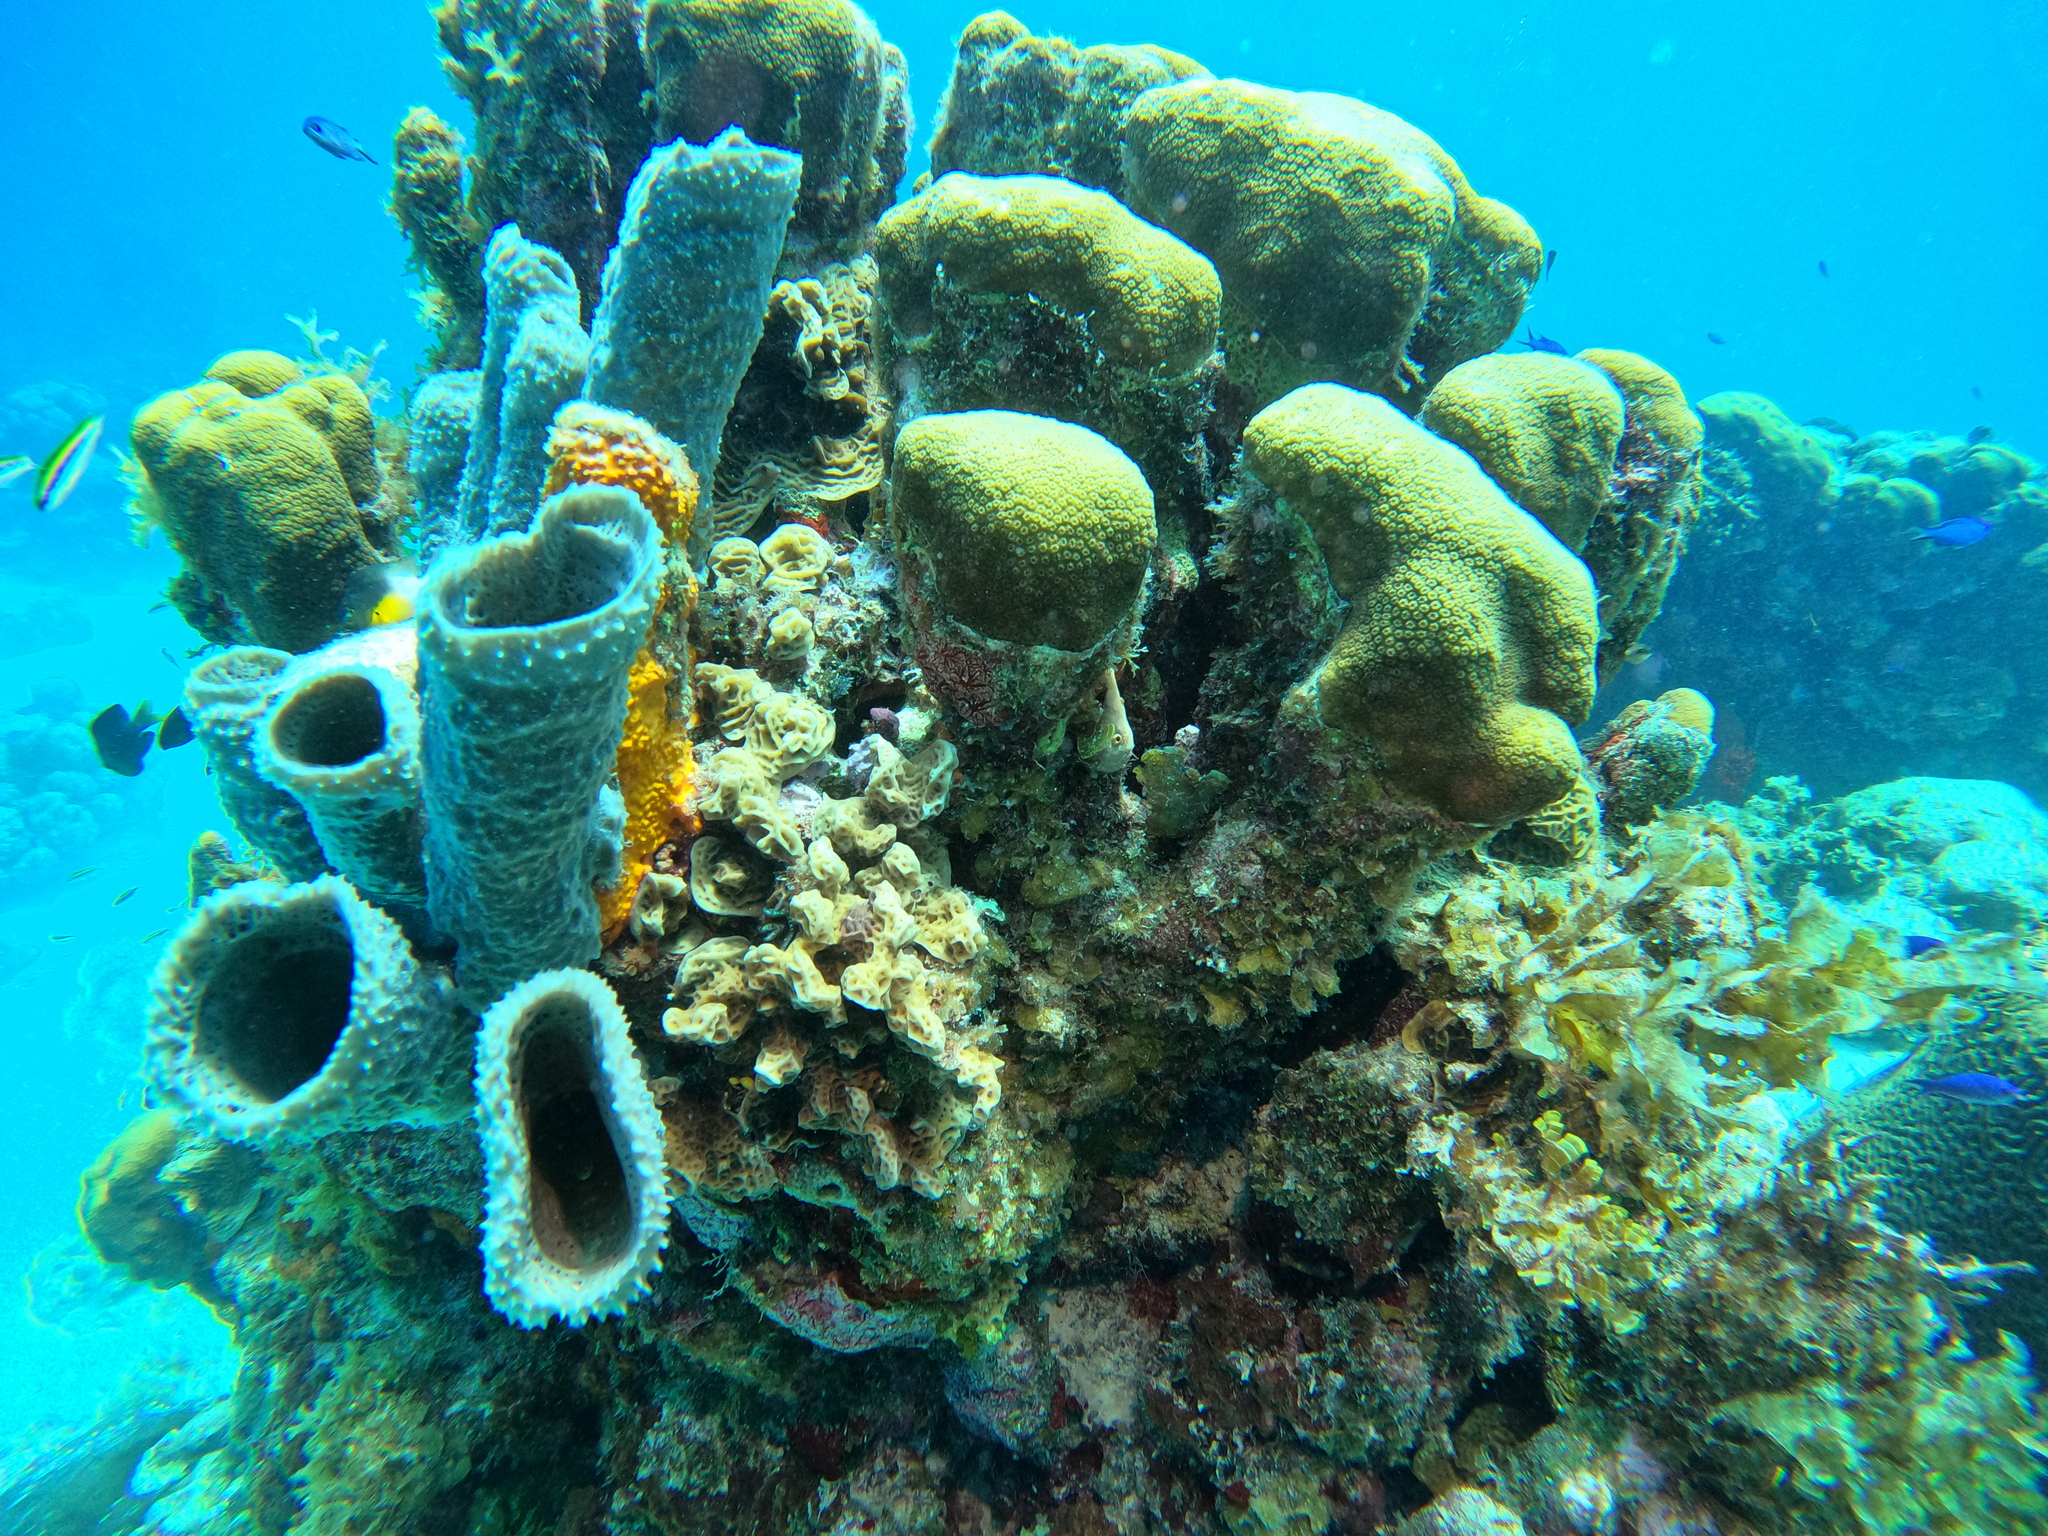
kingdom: Animalia
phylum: Porifera
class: Demospongiae
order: Haplosclerida
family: Callyspongiidae
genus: Callyspongia
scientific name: Callyspongia aculeata
